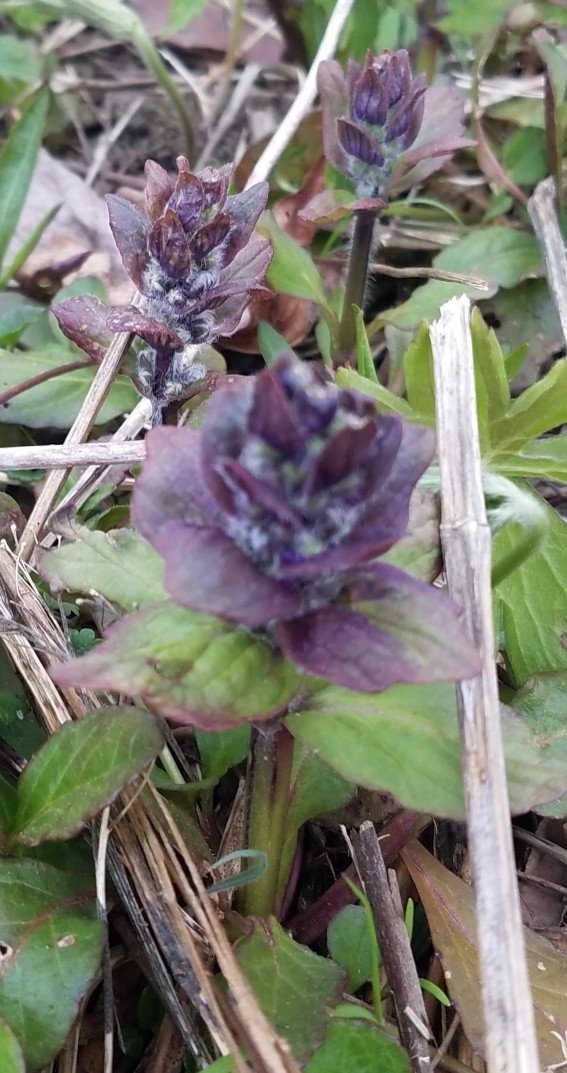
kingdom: Plantae
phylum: Tracheophyta
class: Magnoliopsida
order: Lamiales
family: Lamiaceae
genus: Ajuga
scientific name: Ajuga reptans
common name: Bugle
